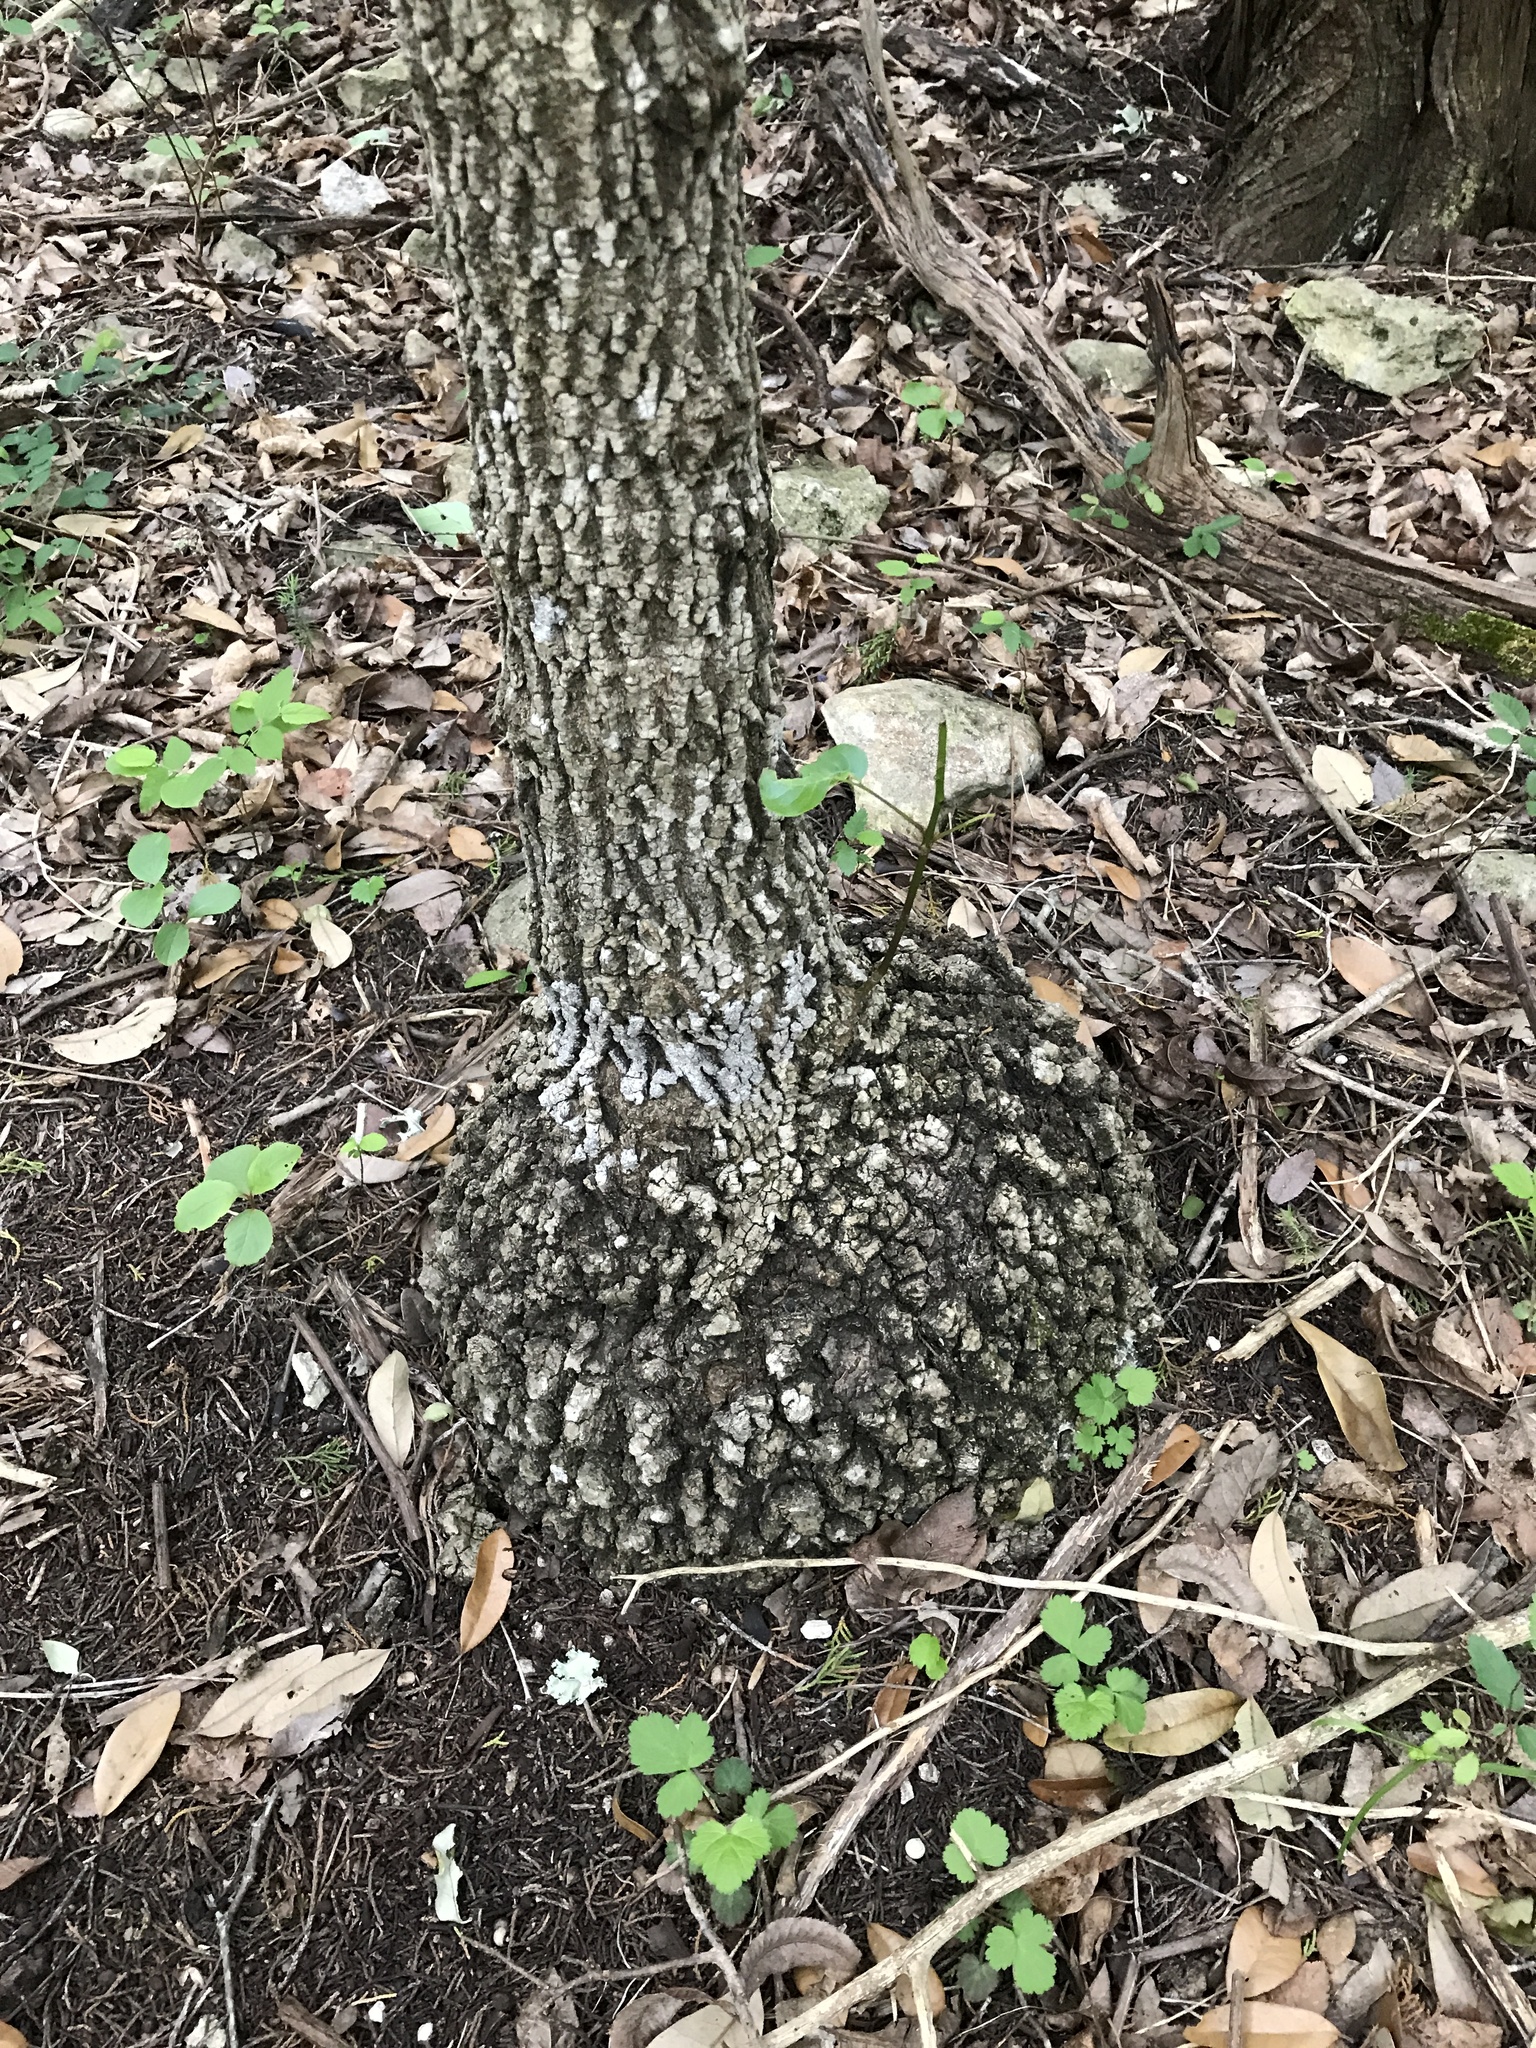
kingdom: Plantae
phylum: Tracheophyta
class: Magnoliopsida
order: Lamiales
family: Oleaceae
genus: Fraxinus
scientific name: Fraxinus albicans
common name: Texas ash
